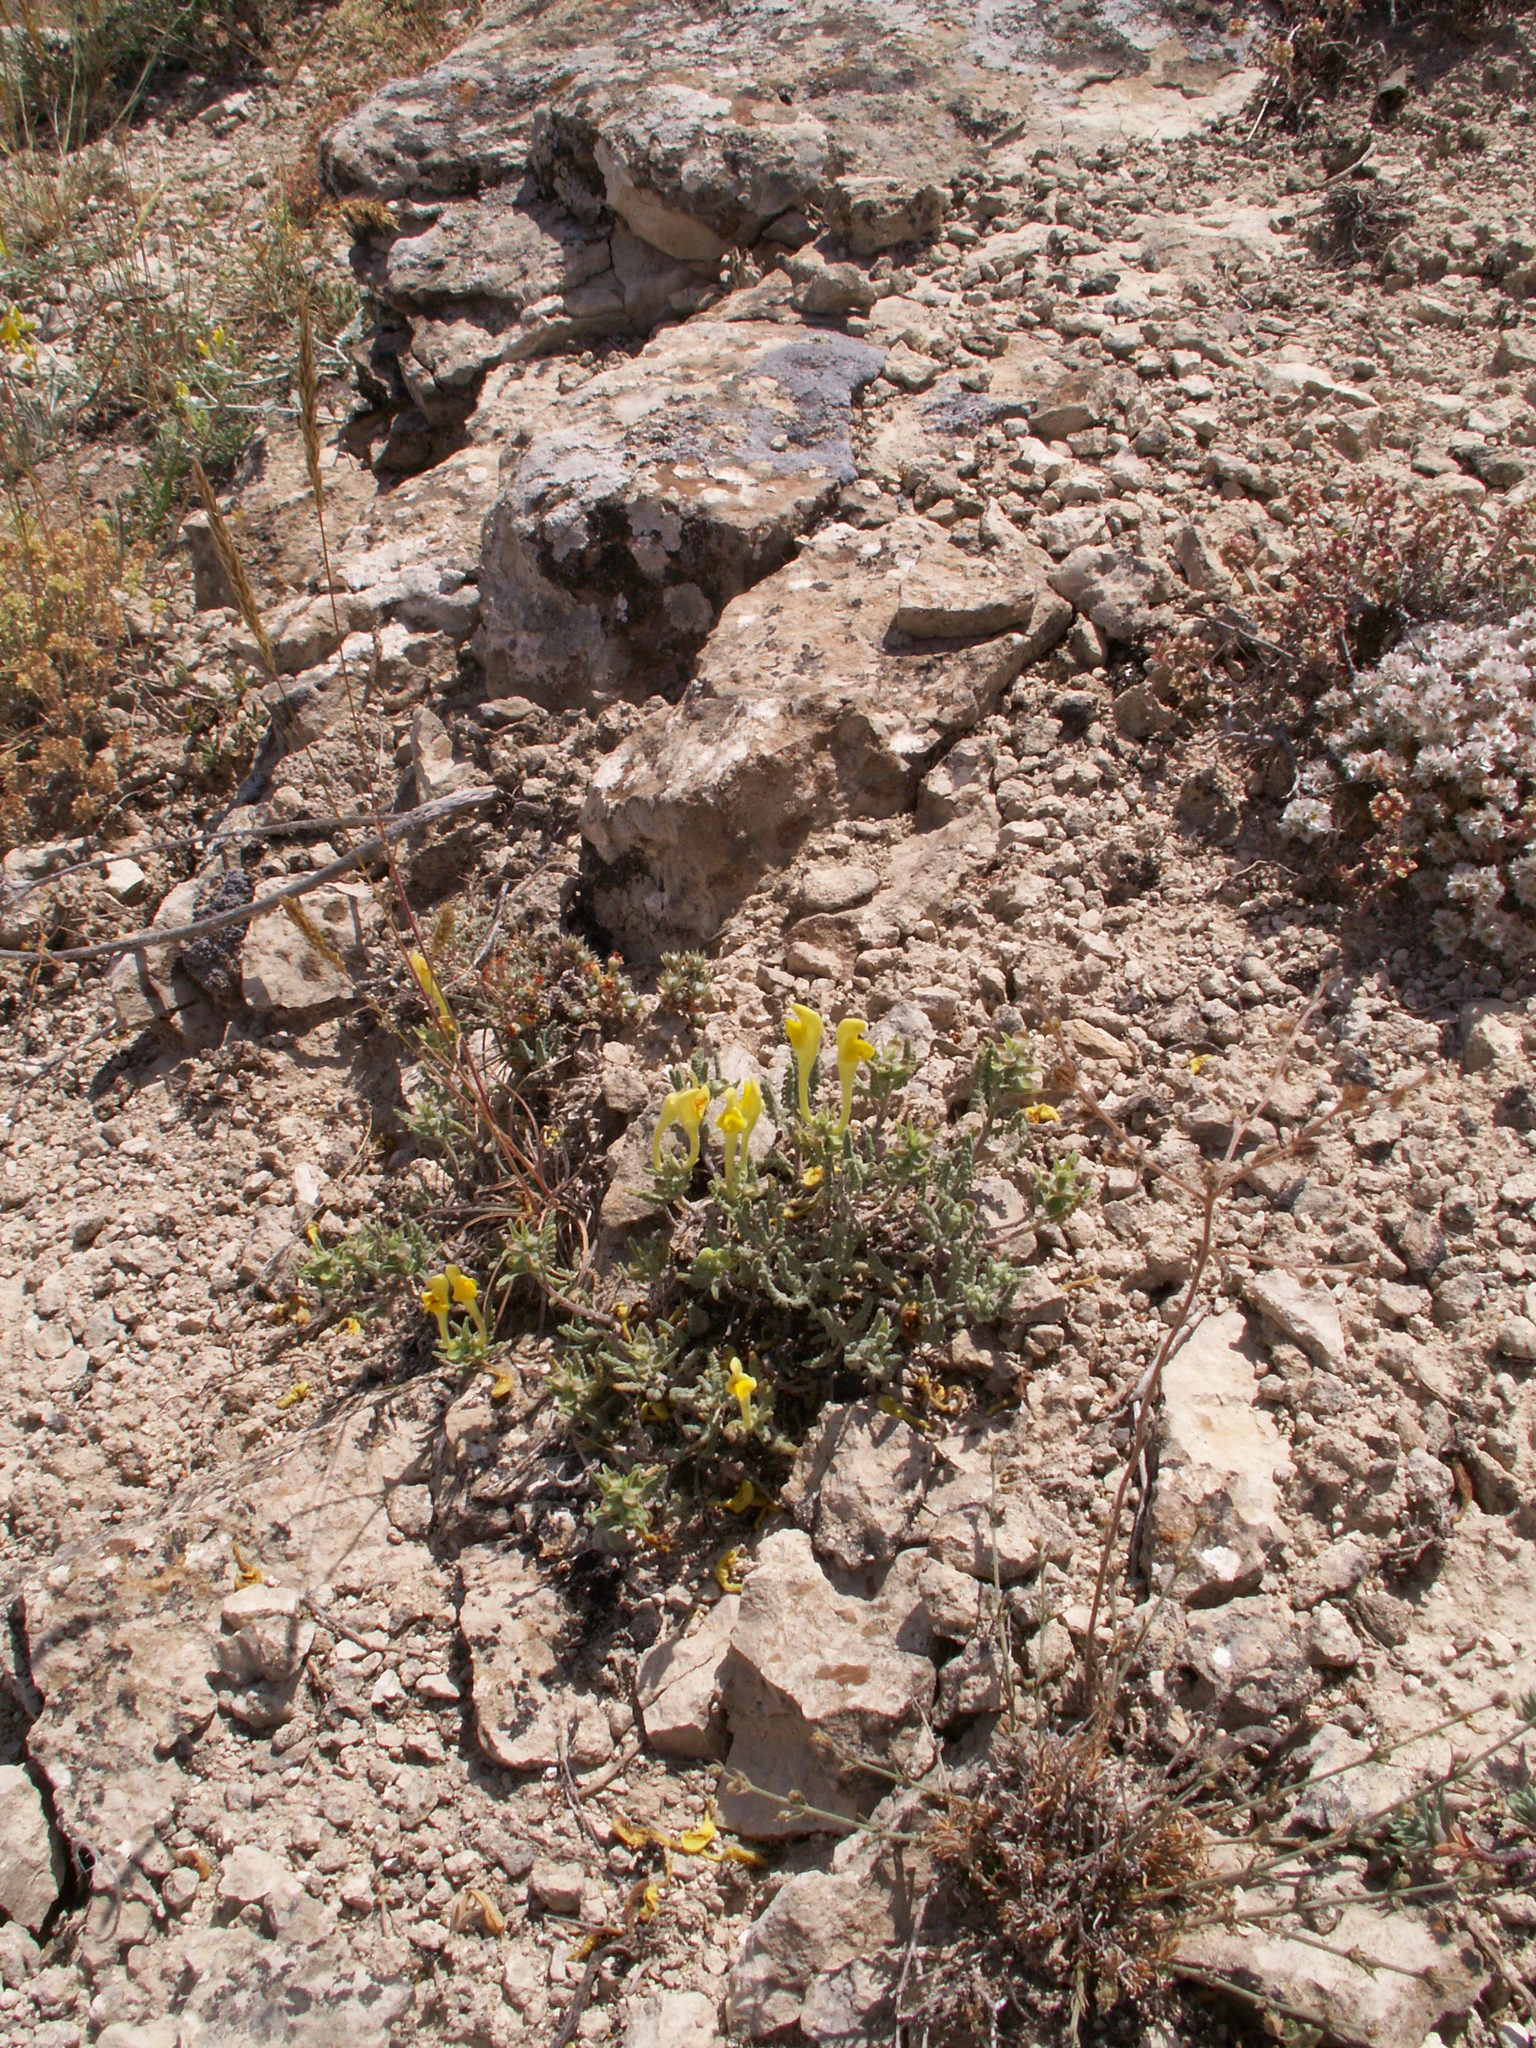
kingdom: Plantae
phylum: Tracheophyta
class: Magnoliopsida
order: Lamiales
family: Lamiaceae
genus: Scutellaria
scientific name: Scutellaria orientalis
